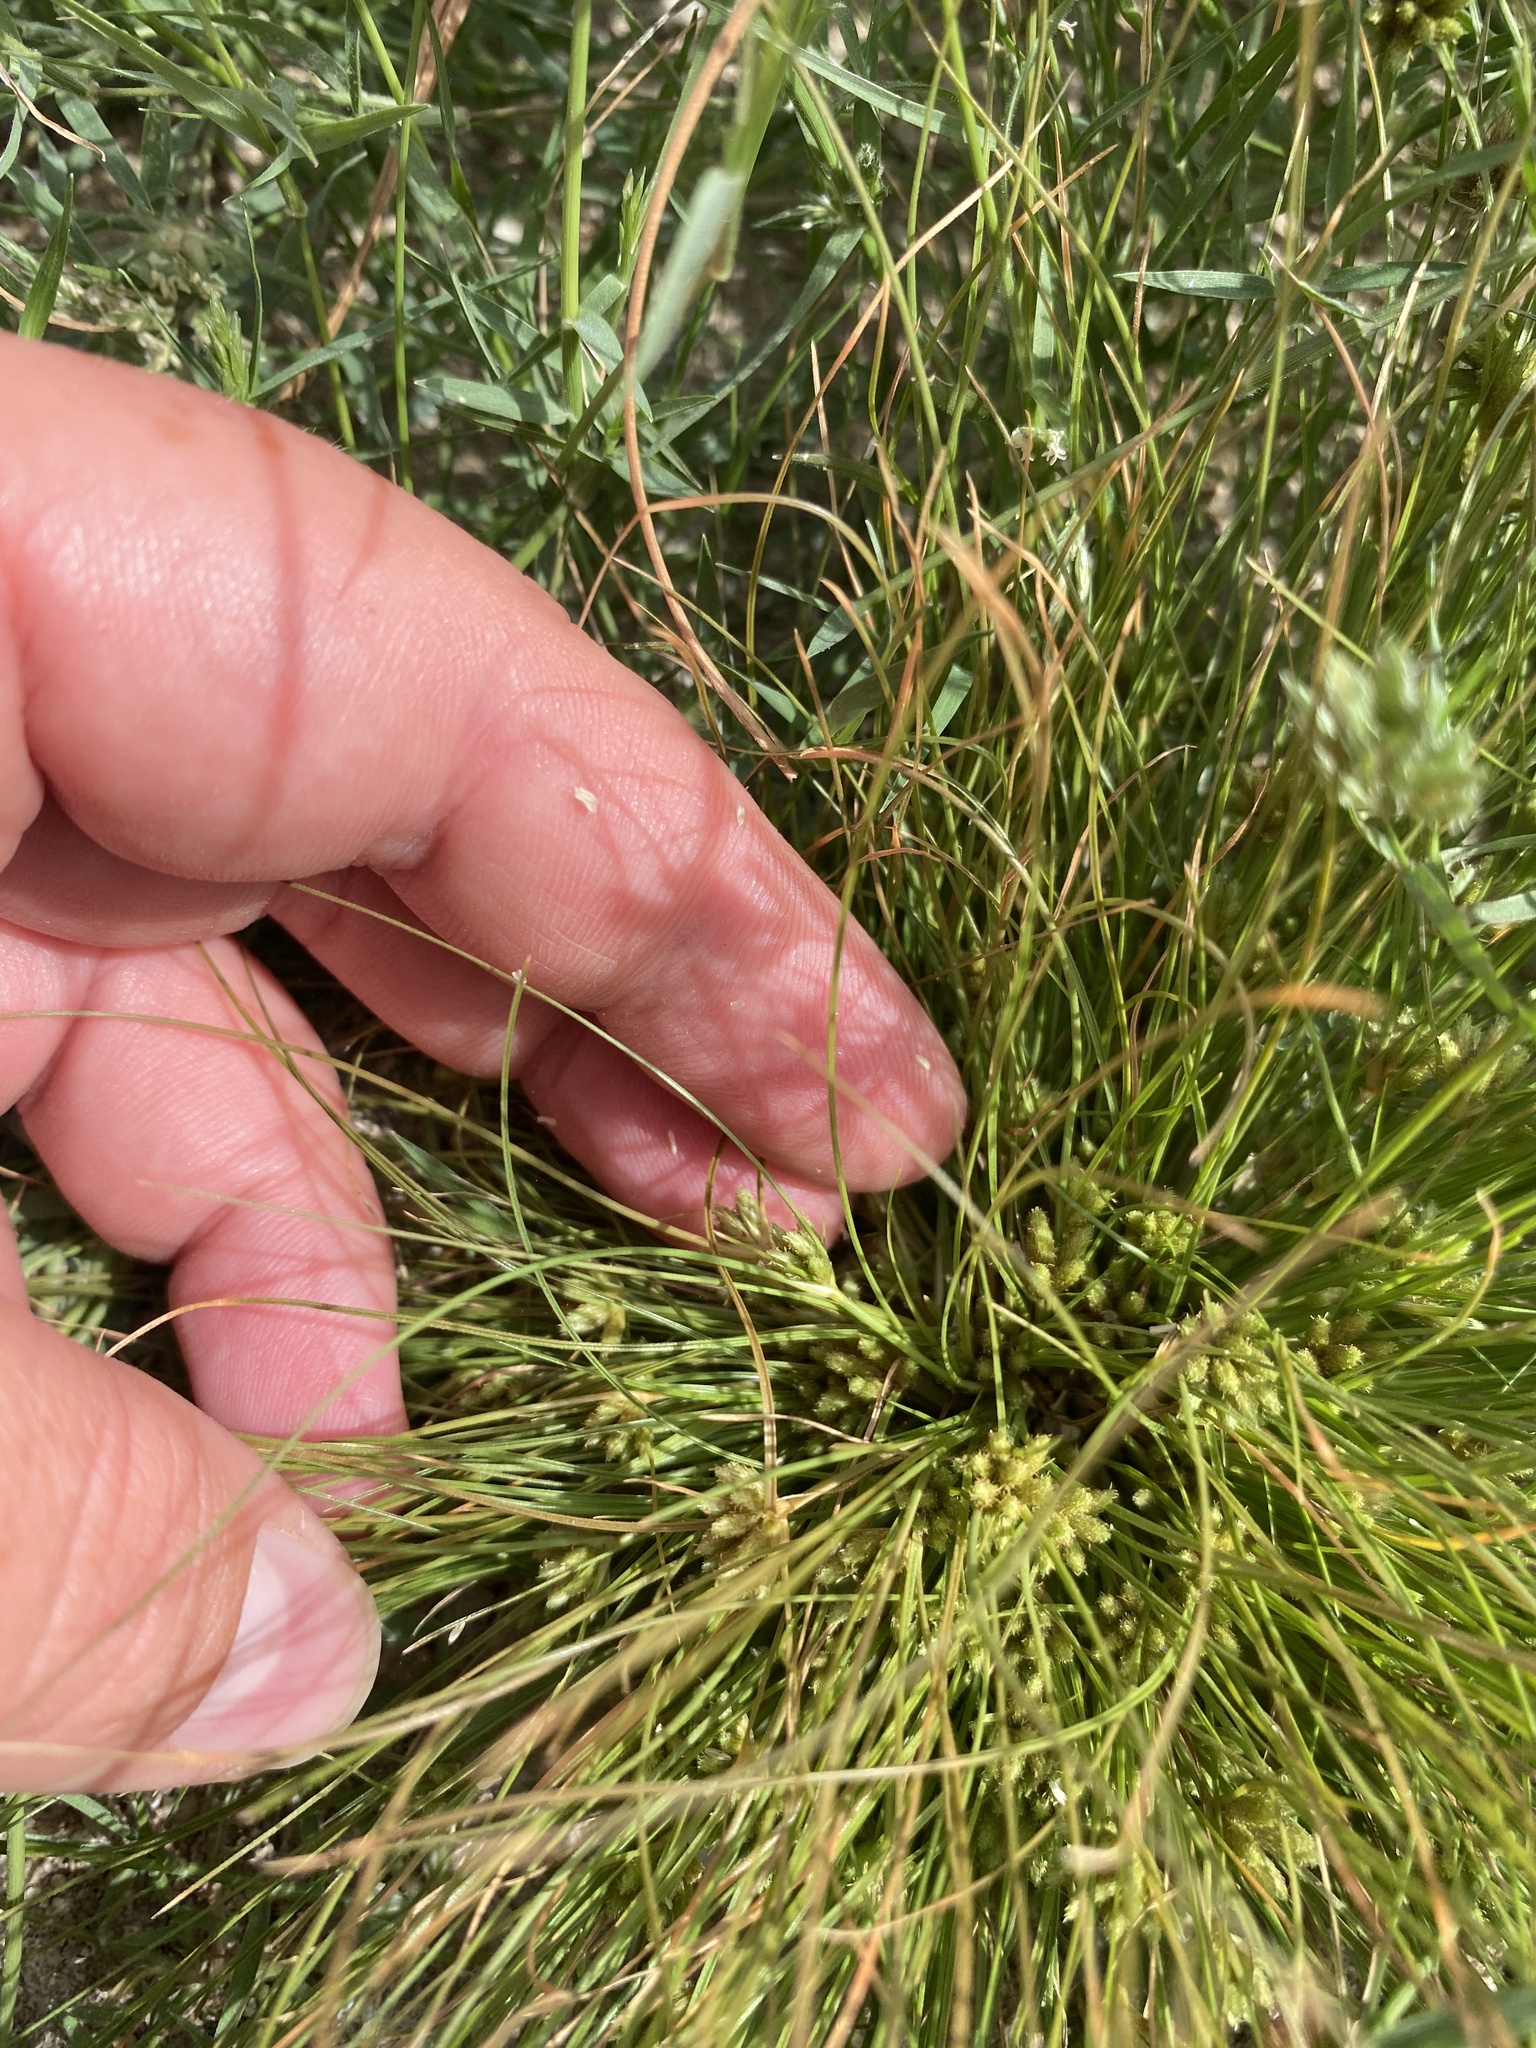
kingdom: Plantae
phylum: Tracheophyta
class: Liliopsida
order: Poales
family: Cyperaceae
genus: Fimbristylis
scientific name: Fimbristylis vahlii
